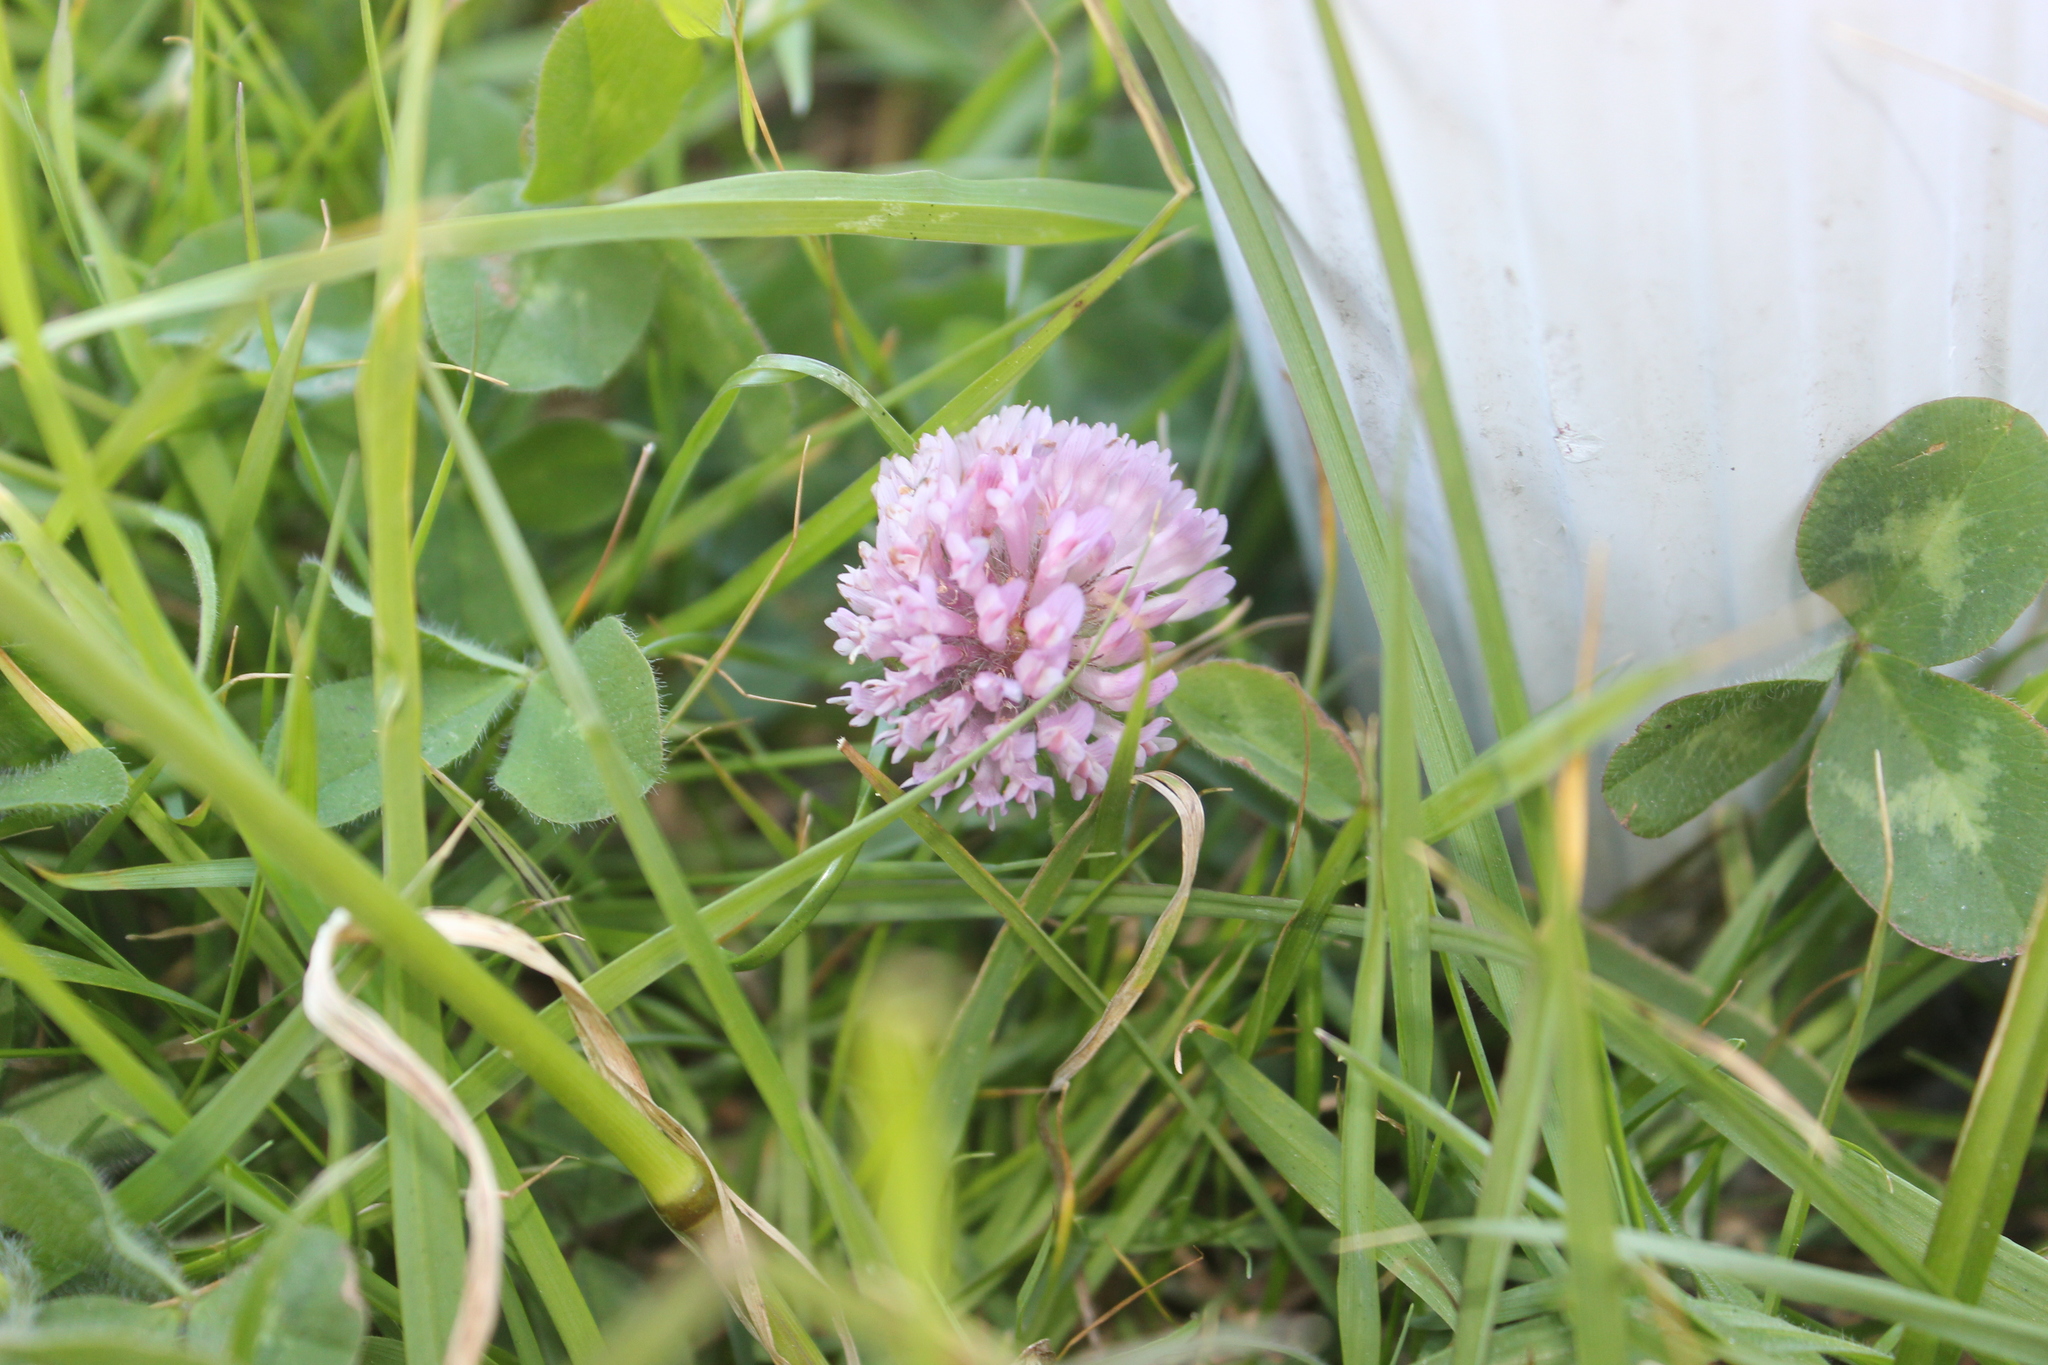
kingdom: Plantae
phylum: Tracheophyta
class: Magnoliopsida
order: Fabales
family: Fabaceae
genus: Trifolium
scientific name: Trifolium pratense
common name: Red clover
